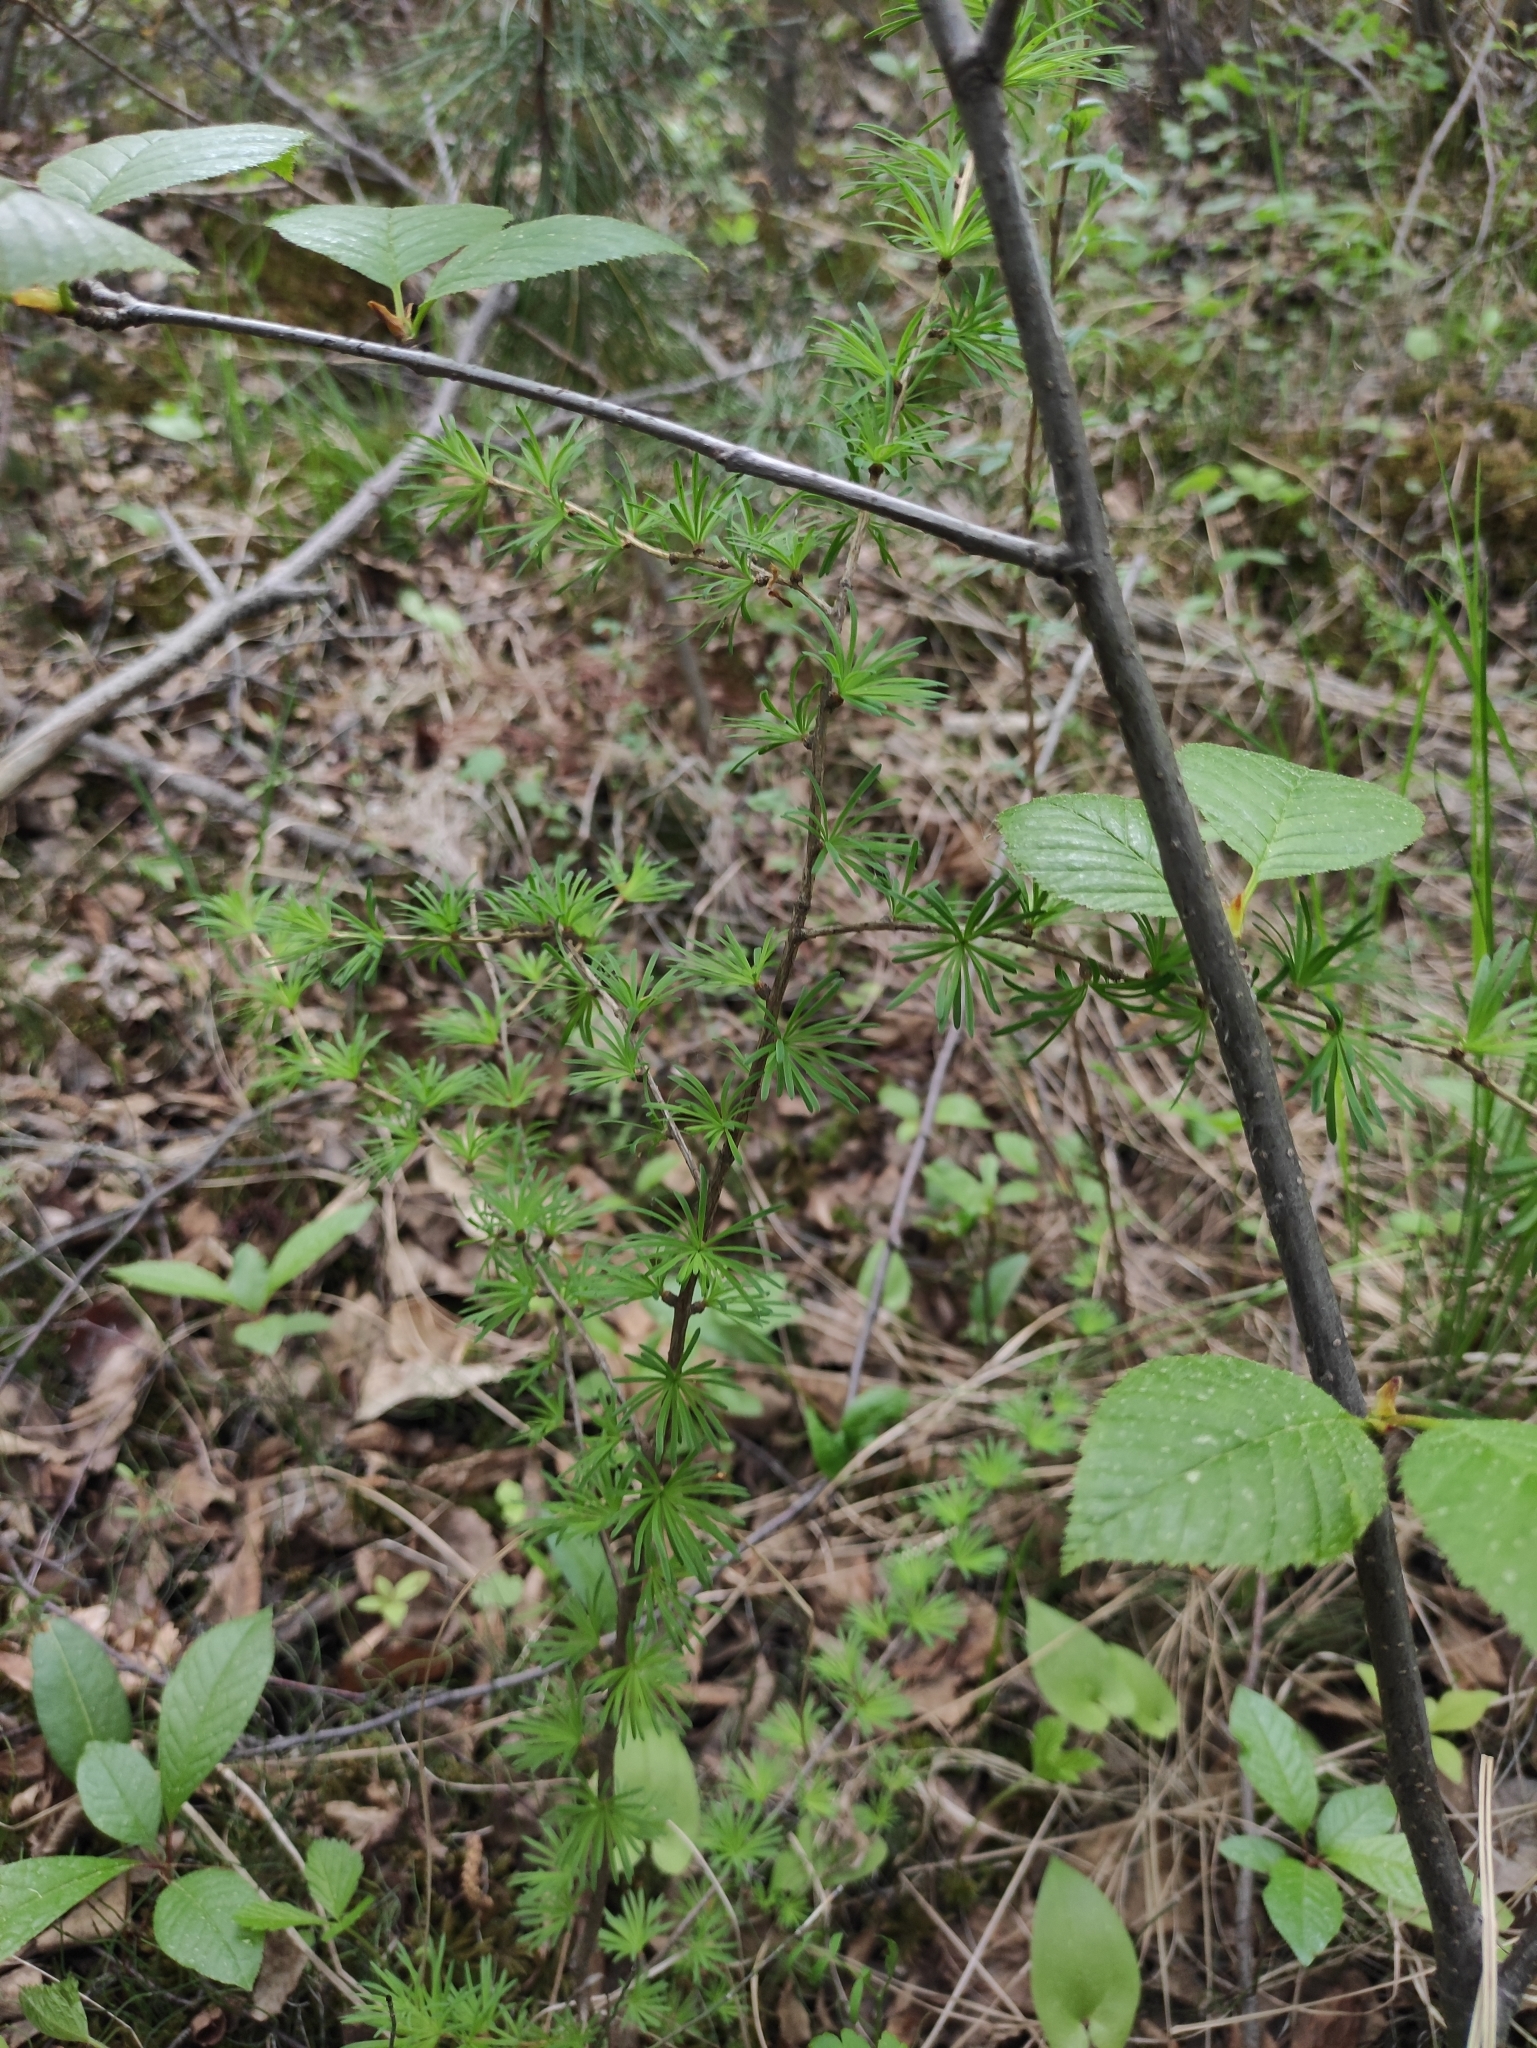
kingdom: Plantae
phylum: Tracheophyta
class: Pinopsida
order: Pinales
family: Pinaceae
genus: Larix
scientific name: Larix sibirica
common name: Siberian larch
